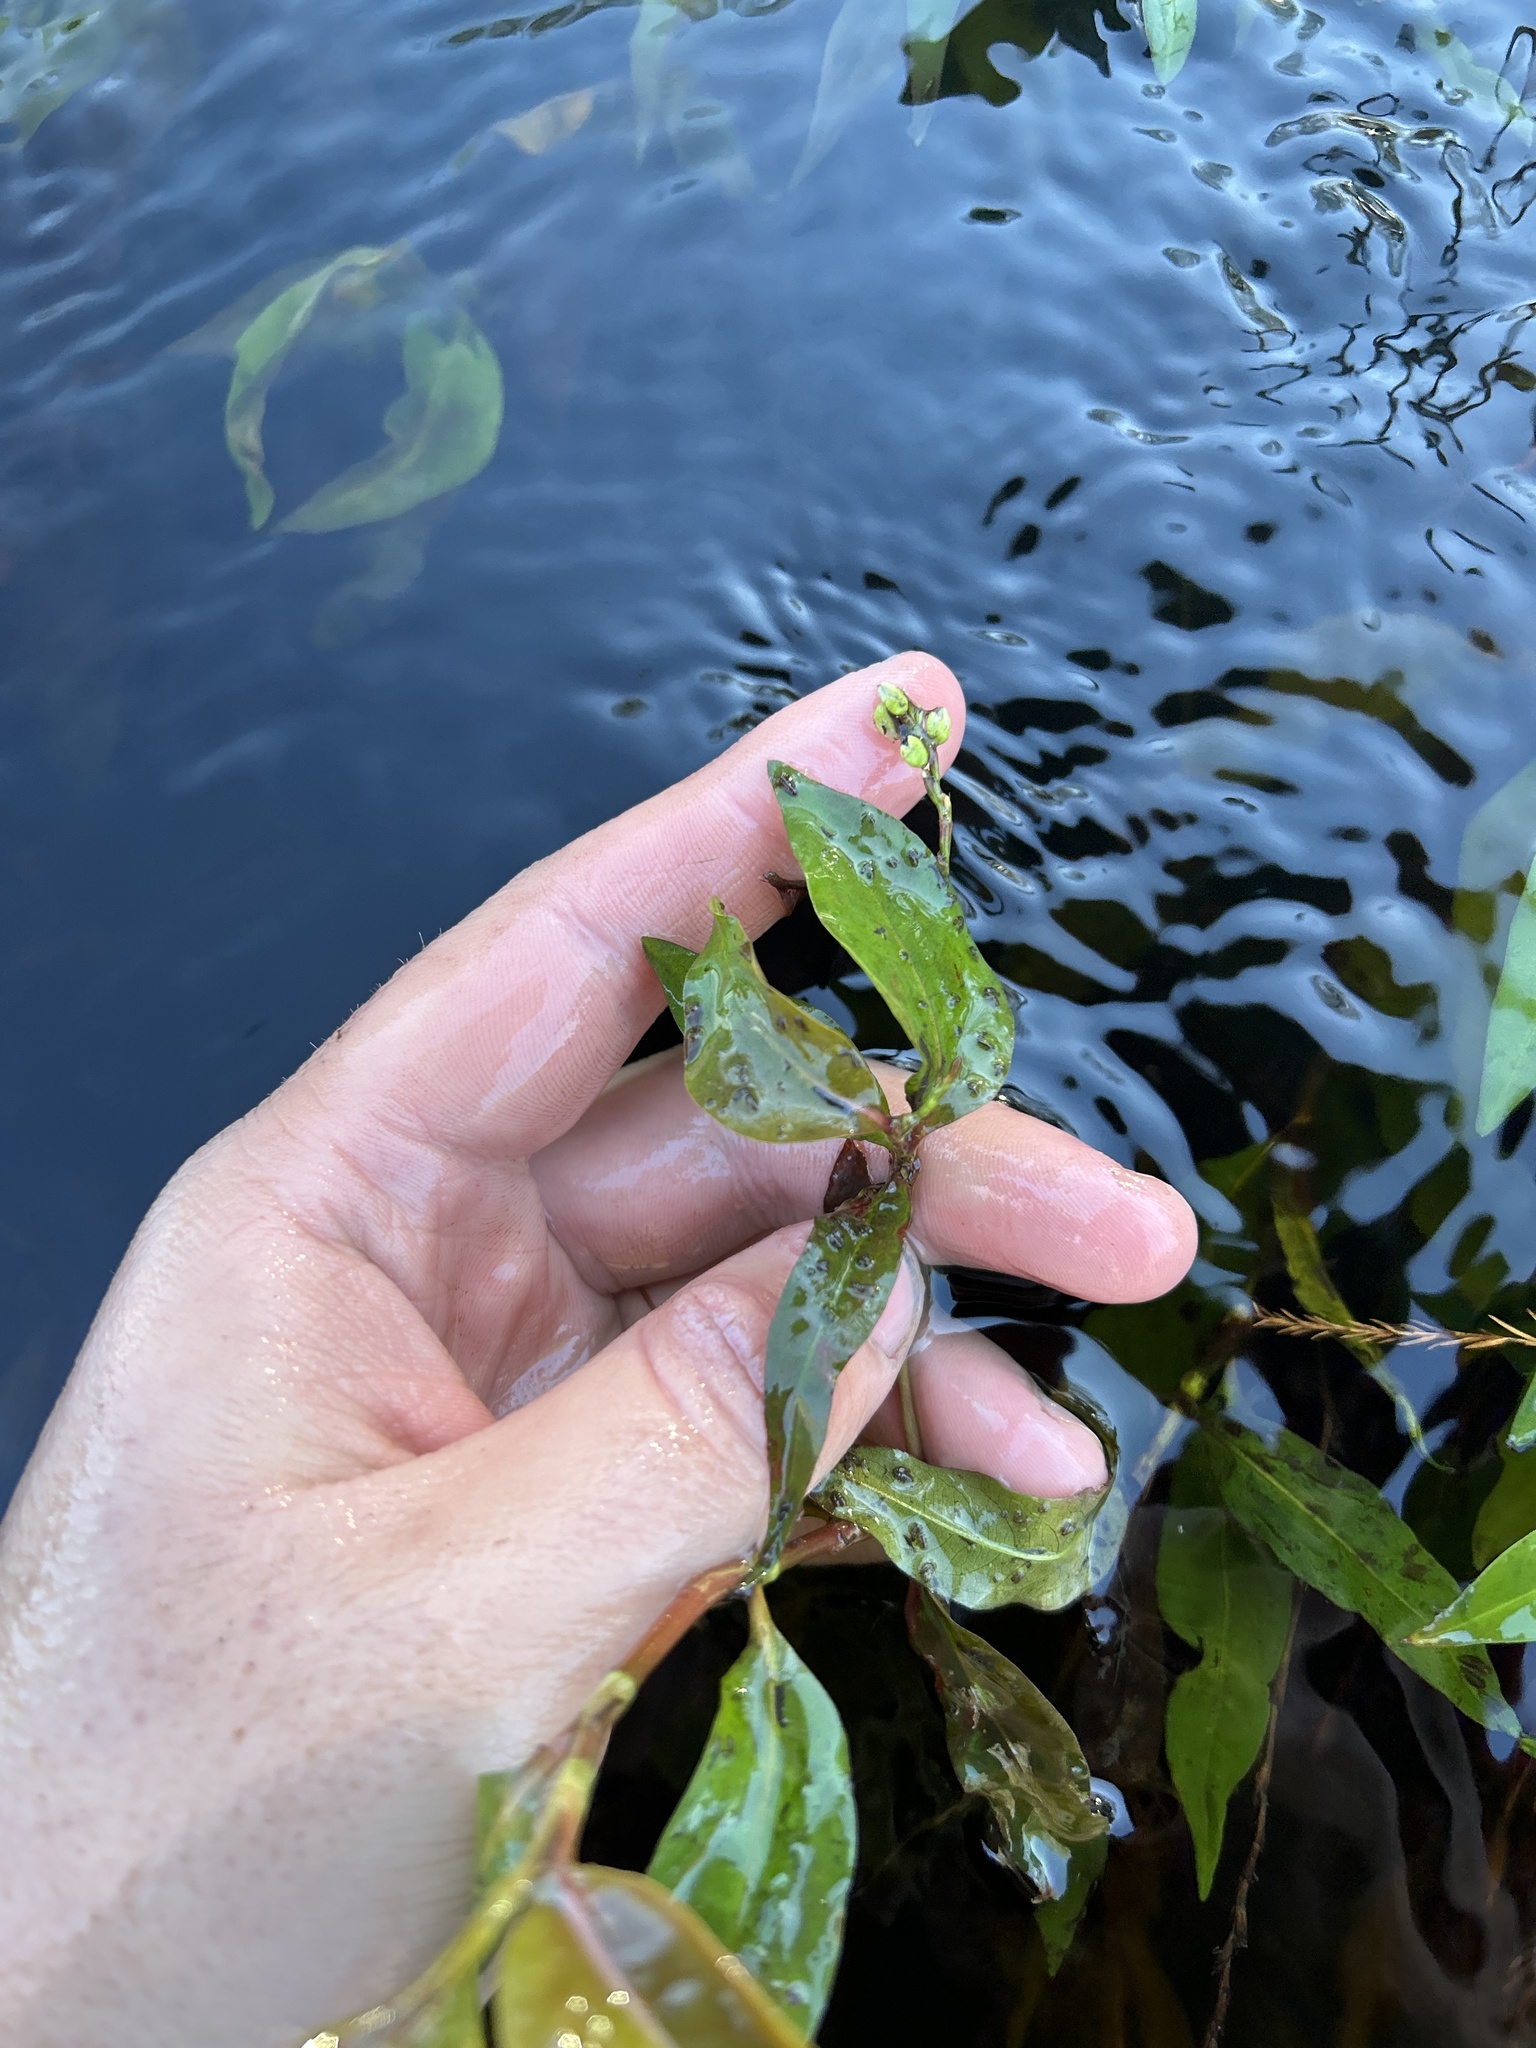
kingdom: Plantae
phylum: Tracheophyta
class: Magnoliopsida
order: Caryophyllales
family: Polygonaceae
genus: Persicaria
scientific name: Persicaria hydropiperoides
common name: Swamp smartweed
